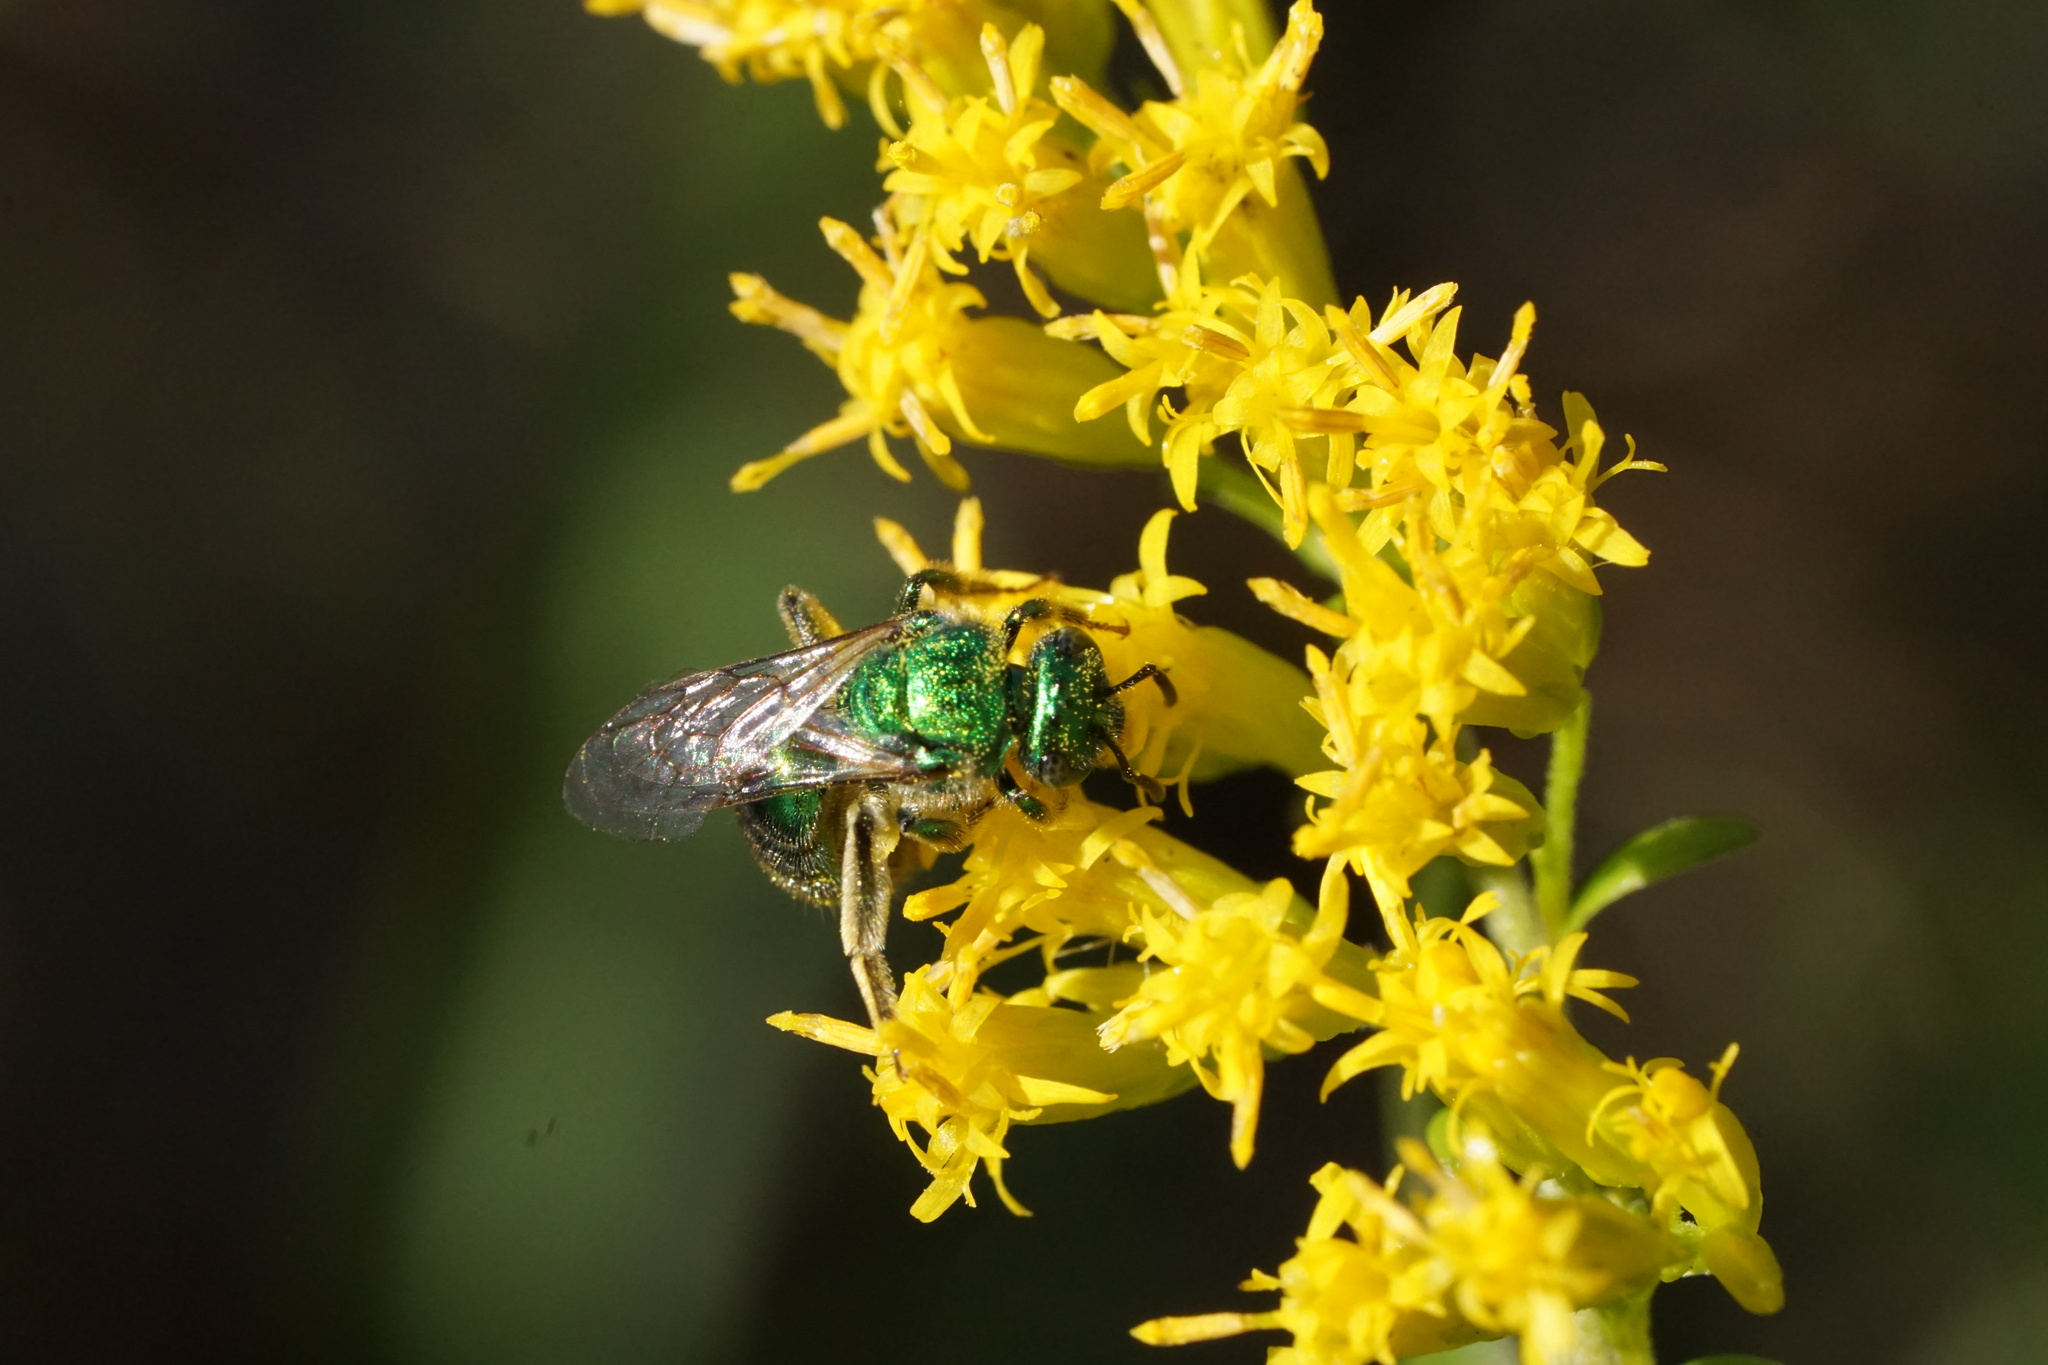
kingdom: Animalia
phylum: Arthropoda
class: Insecta
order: Hymenoptera
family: Halictidae
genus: Augochloropsis
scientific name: Augochloropsis viridula
